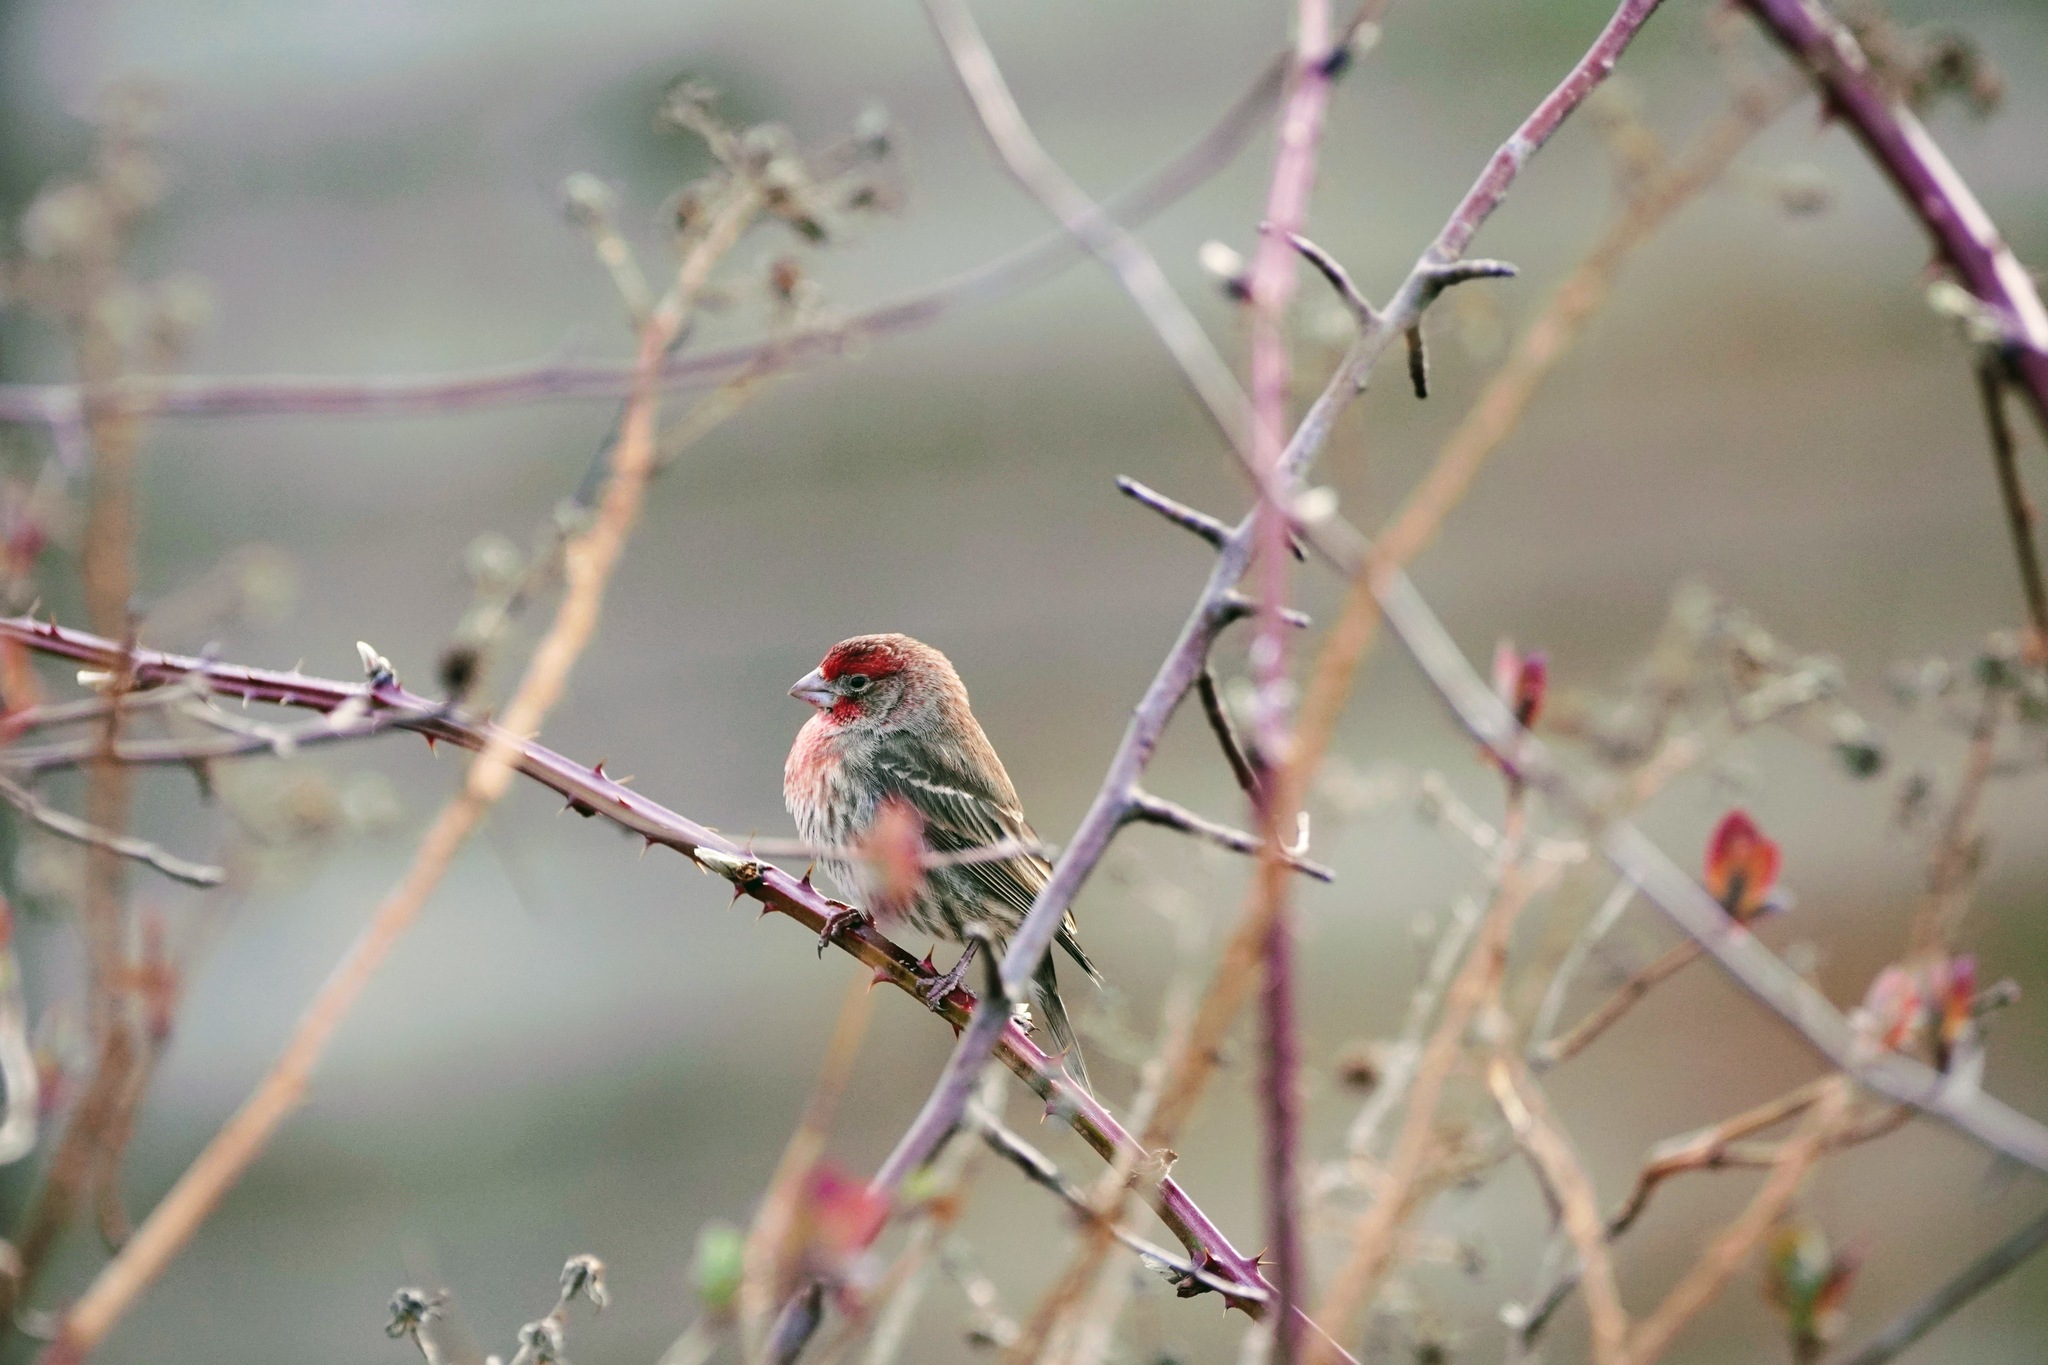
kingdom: Animalia
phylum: Chordata
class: Aves
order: Passeriformes
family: Fringillidae
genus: Haemorhous
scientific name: Haemorhous mexicanus
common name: House finch
